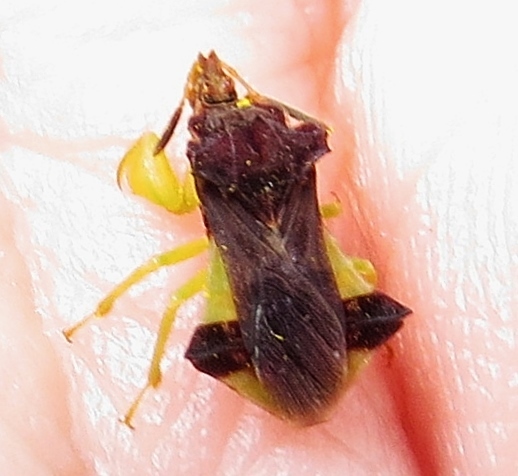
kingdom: Animalia
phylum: Arthropoda
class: Insecta
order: Hemiptera
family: Reduviidae
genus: Phymata
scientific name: Phymata pennsylvanica
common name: Pennsylvania ambush bug
